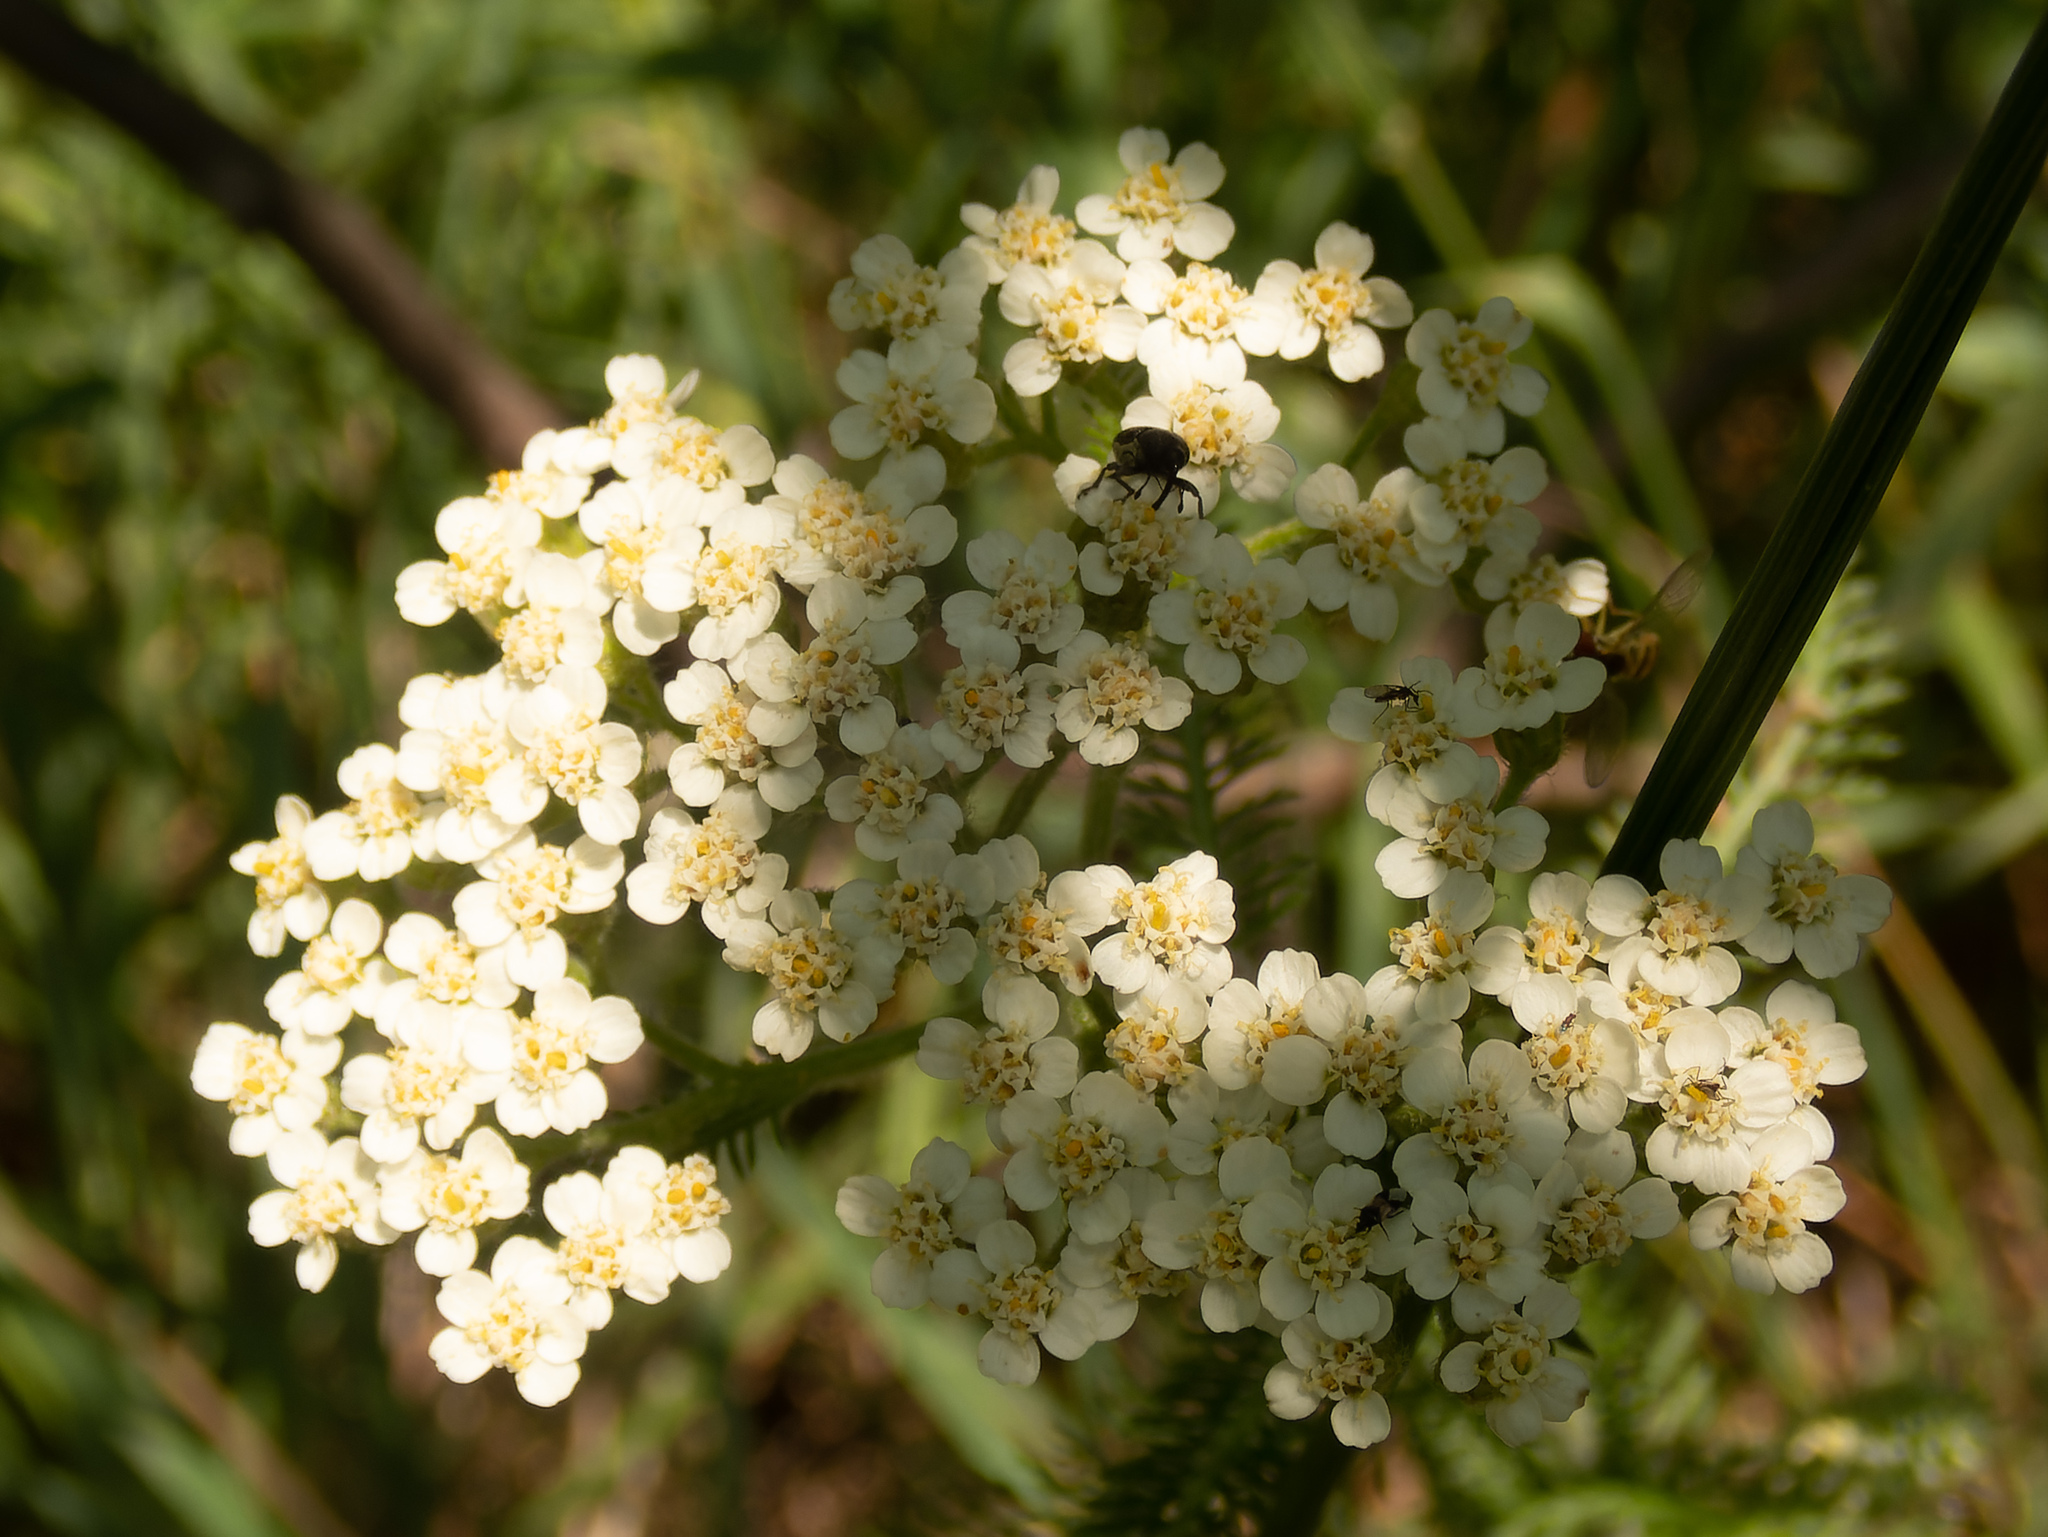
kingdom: Plantae
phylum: Tracheophyta
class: Magnoliopsida
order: Asterales
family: Asteraceae
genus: Achillea
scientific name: Achillea millefolium
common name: Yarrow
